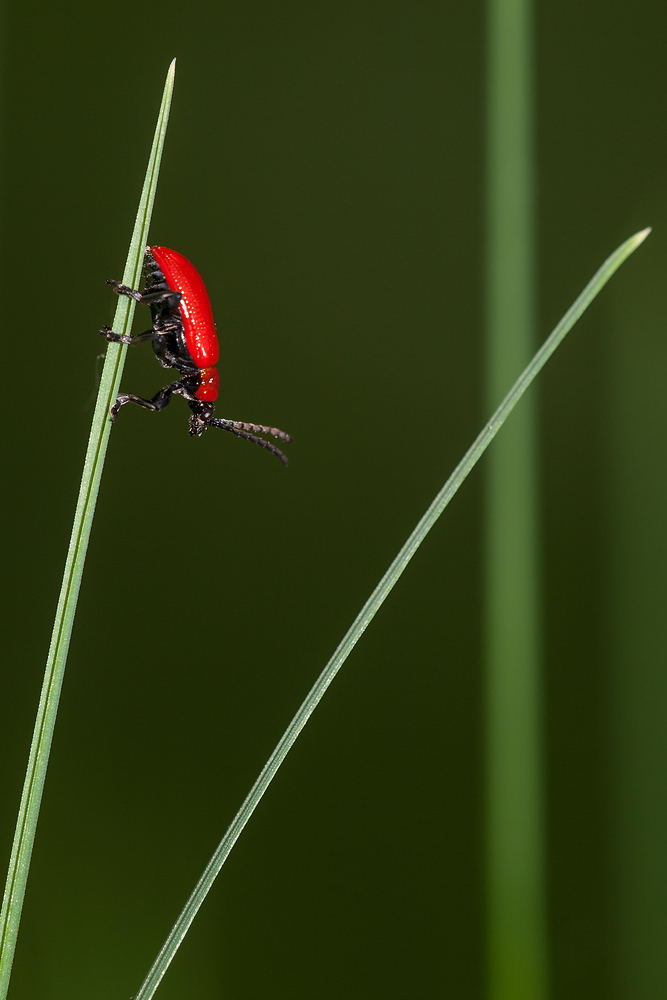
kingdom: Animalia
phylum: Arthropoda
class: Insecta
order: Coleoptera
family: Chrysomelidae
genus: Lilioceris
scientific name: Lilioceris lilii
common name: Lily beetle
